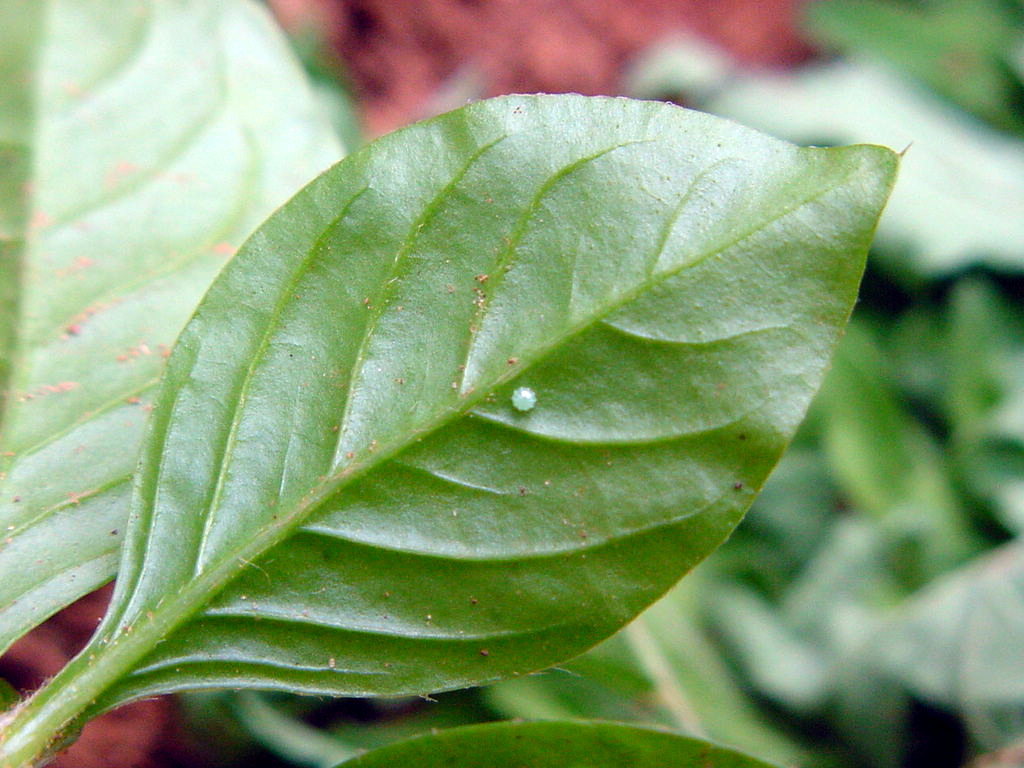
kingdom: Animalia
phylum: Arthropoda
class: Insecta
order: Lepidoptera
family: Nymphalidae
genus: Hypolimnas
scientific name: Hypolimnas bolina
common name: Great eggfly
